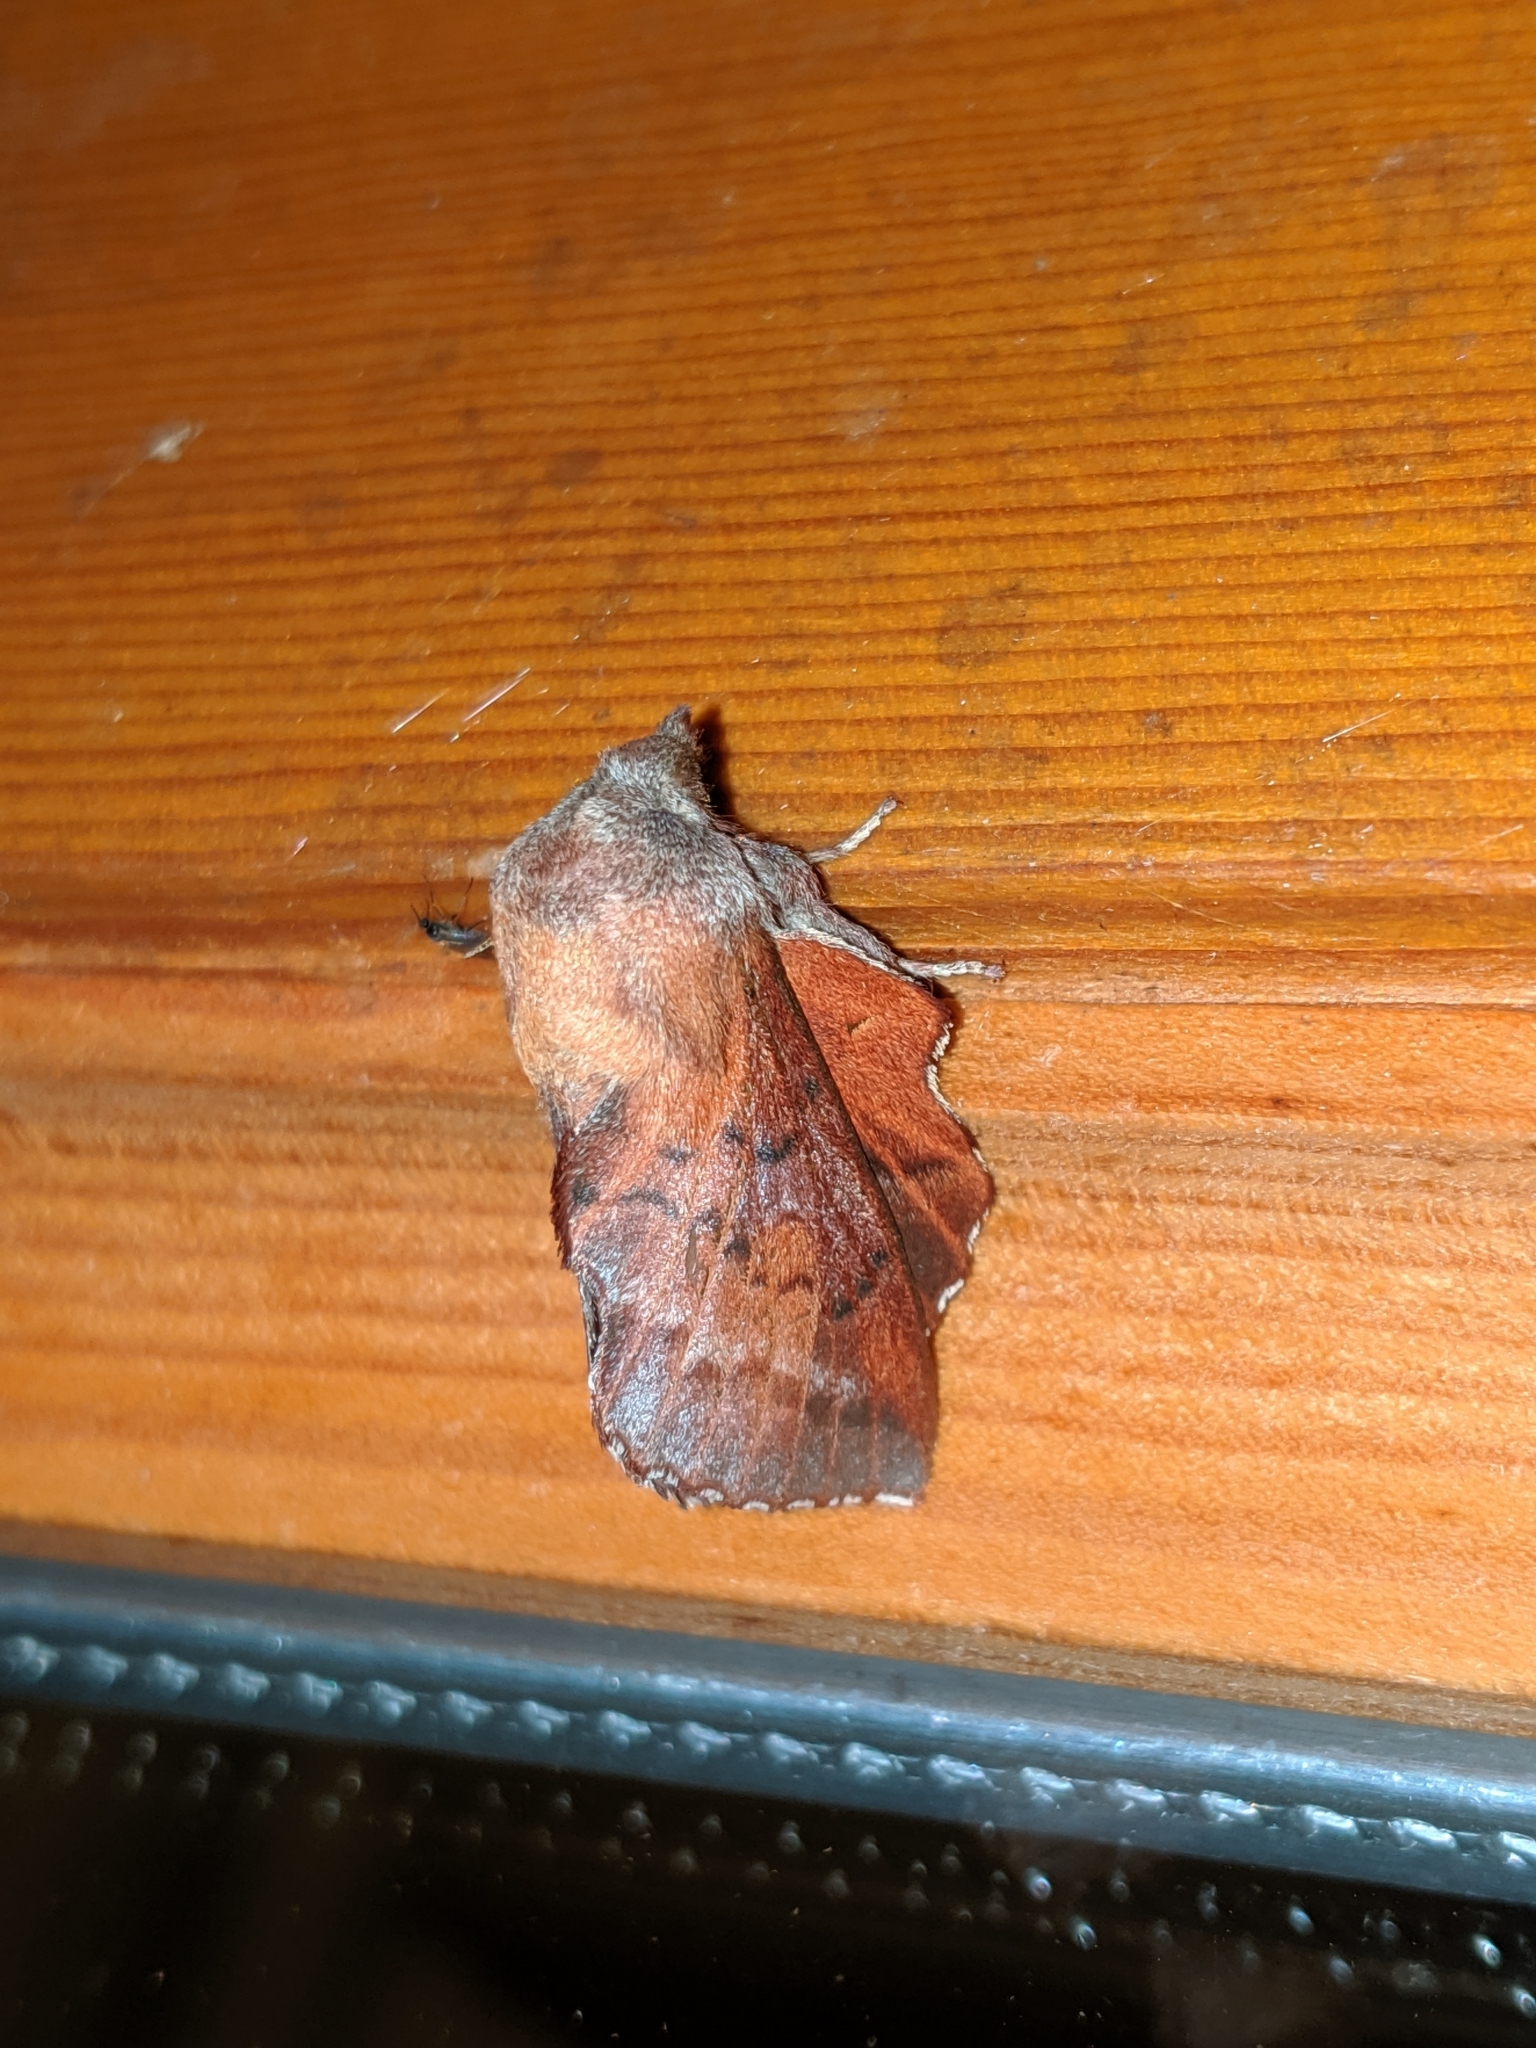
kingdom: Animalia
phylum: Arthropoda
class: Insecta
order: Lepidoptera
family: Lasiocampidae
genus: Phyllodesma
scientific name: Phyllodesma americana
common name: American lappet moth
